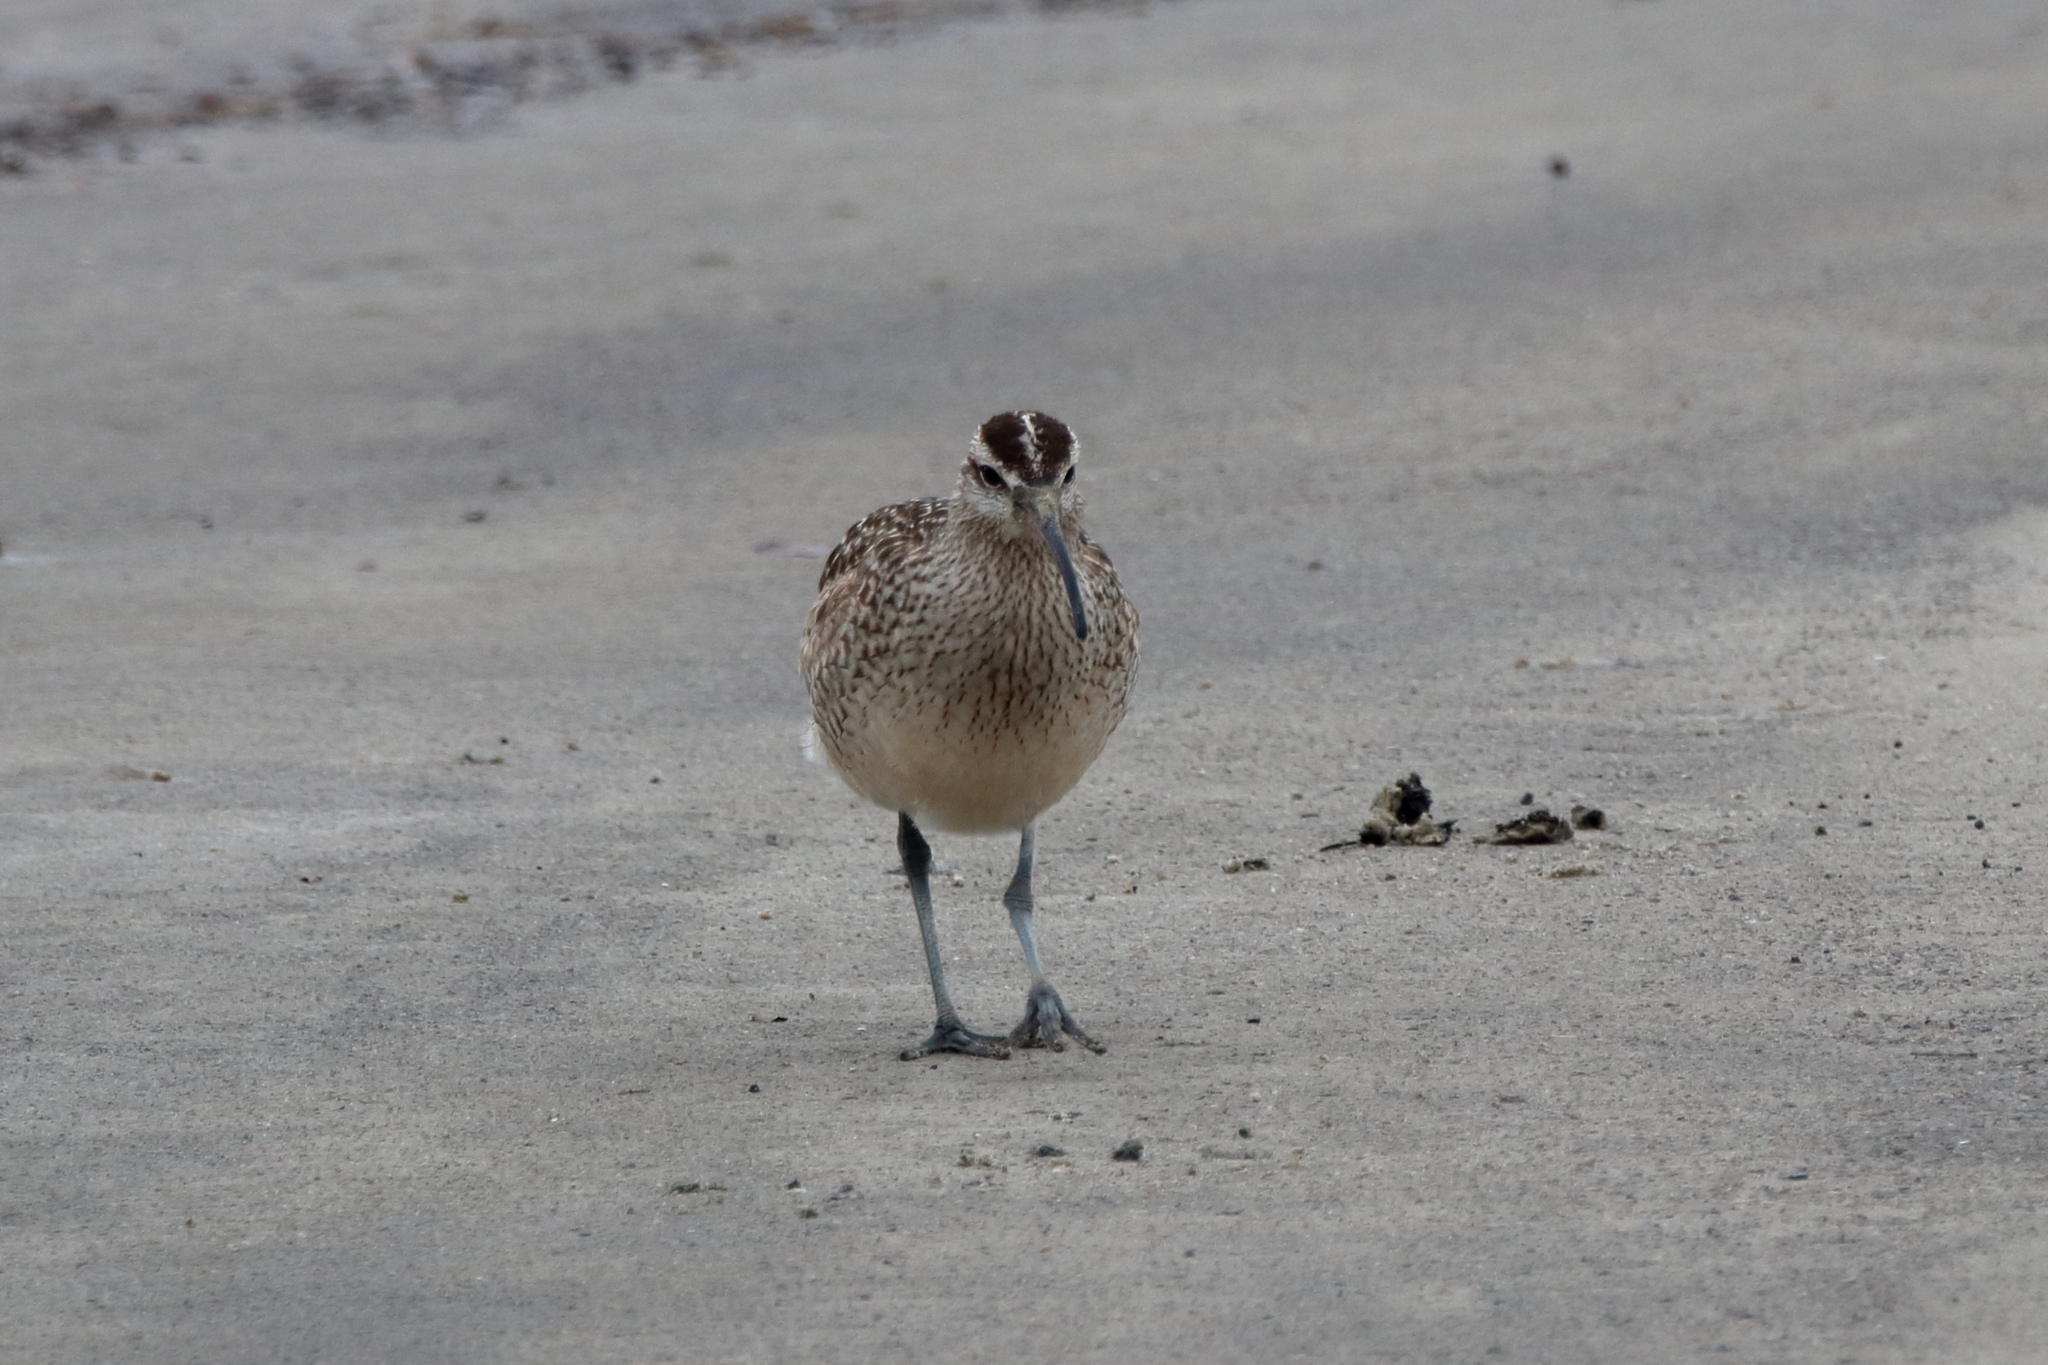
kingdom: Animalia
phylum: Chordata
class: Aves
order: Charadriiformes
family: Scolopacidae
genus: Numenius
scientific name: Numenius phaeopus
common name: Whimbrel
